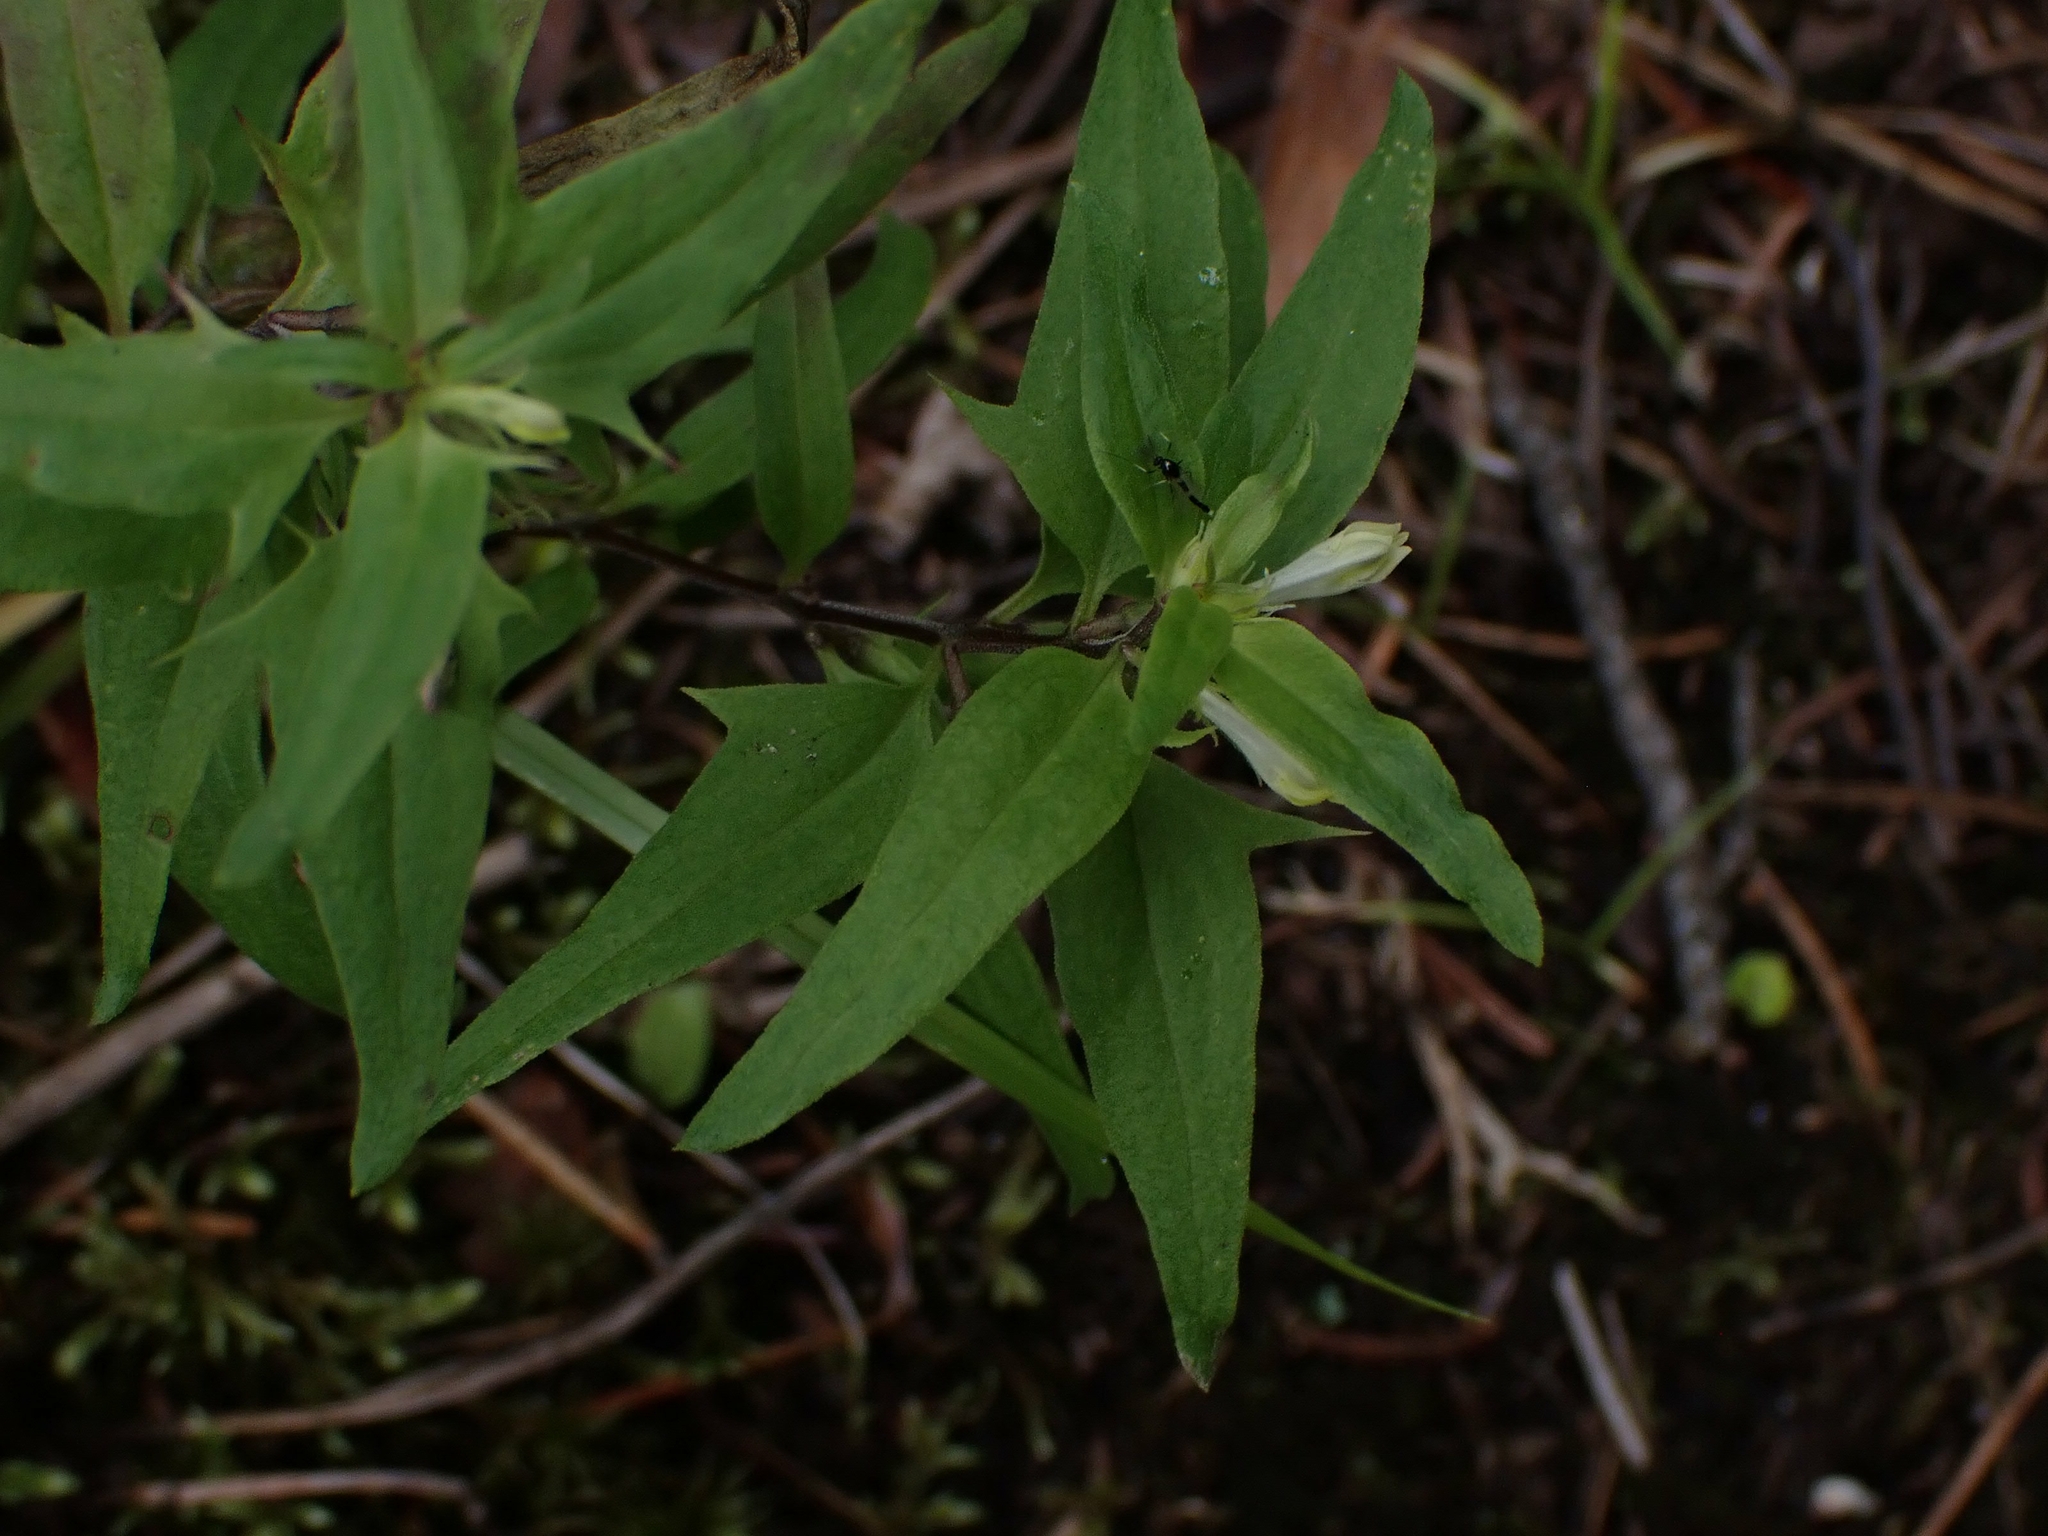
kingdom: Plantae
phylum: Tracheophyta
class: Magnoliopsida
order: Lamiales
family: Orobanchaceae
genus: Melampyrum
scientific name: Melampyrum lineare
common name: American cow-wheat
